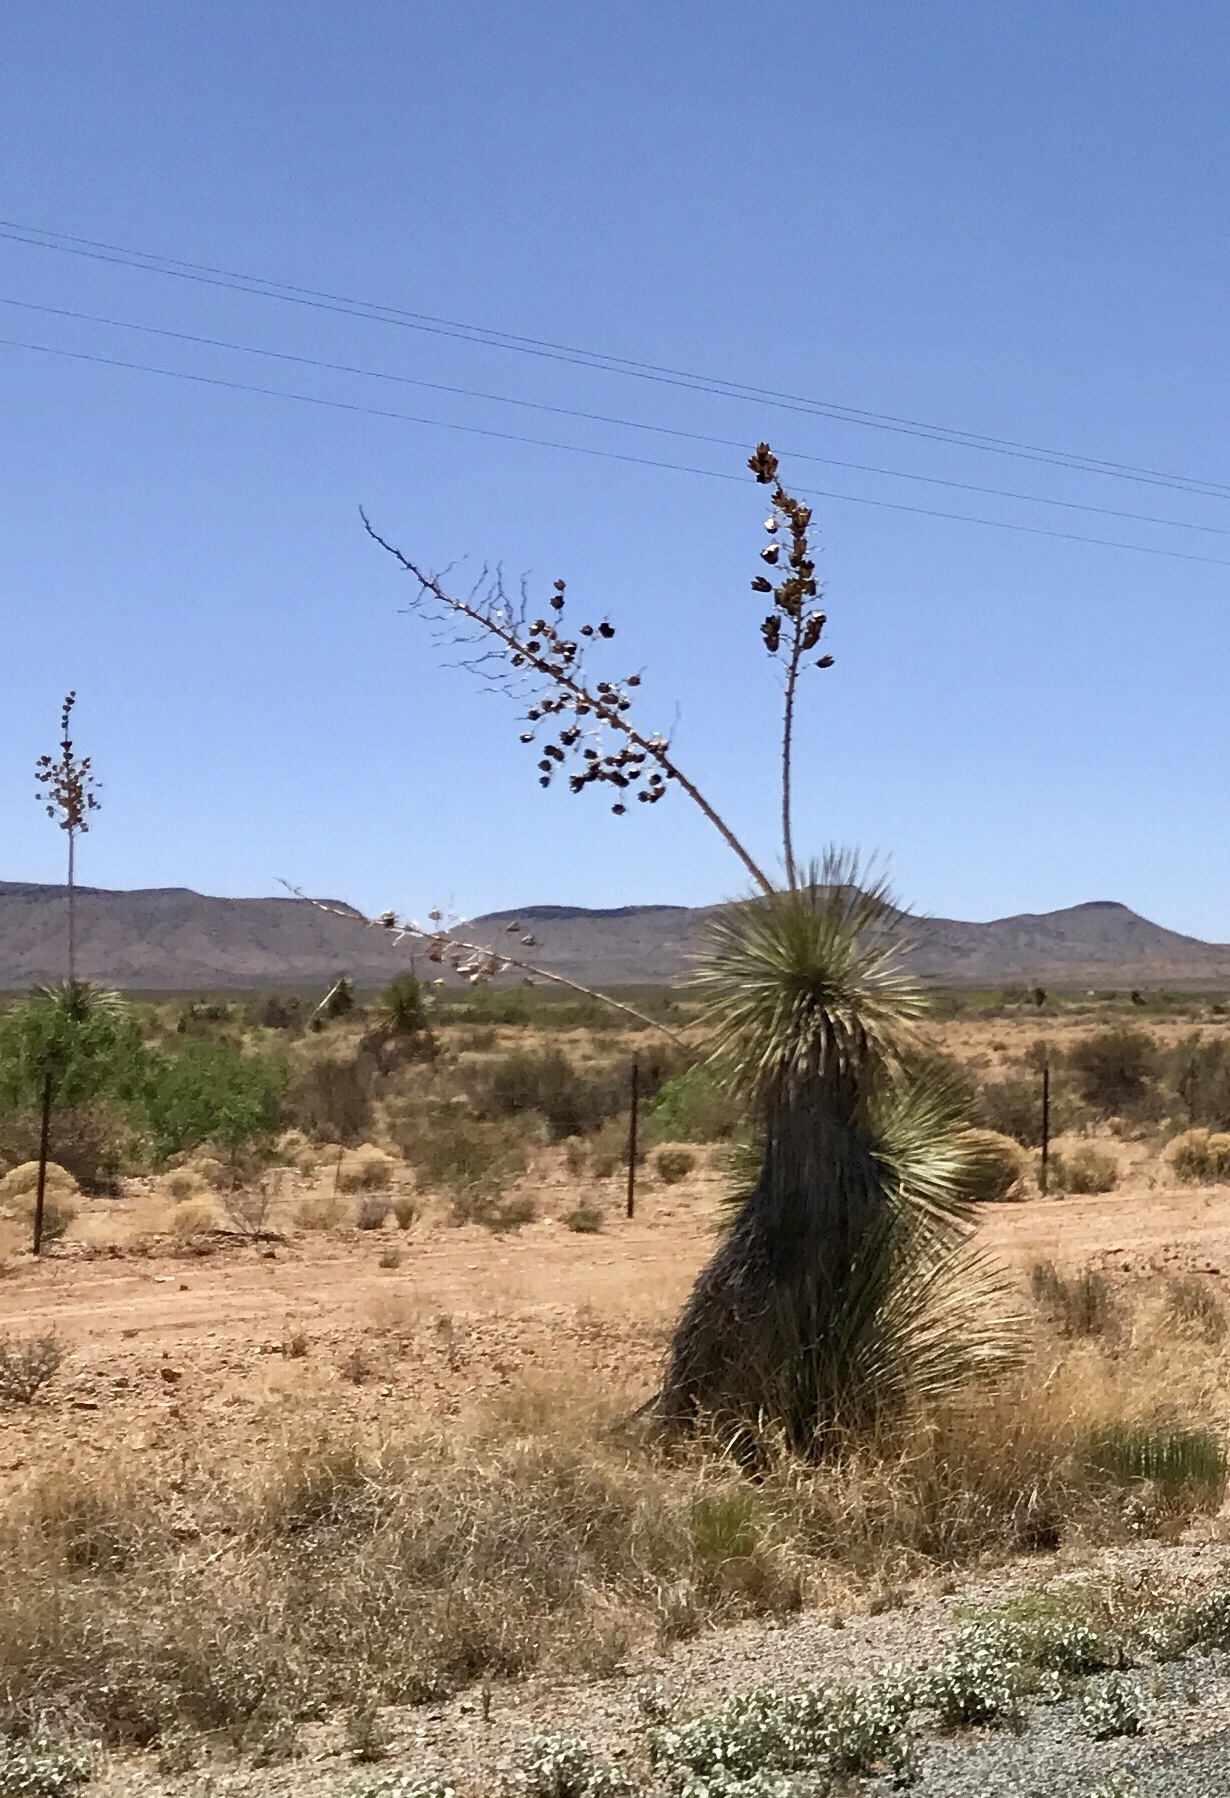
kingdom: Plantae
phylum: Tracheophyta
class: Liliopsida
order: Asparagales
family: Asparagaceae
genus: Yucca
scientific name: Yucca elata
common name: Palmella
